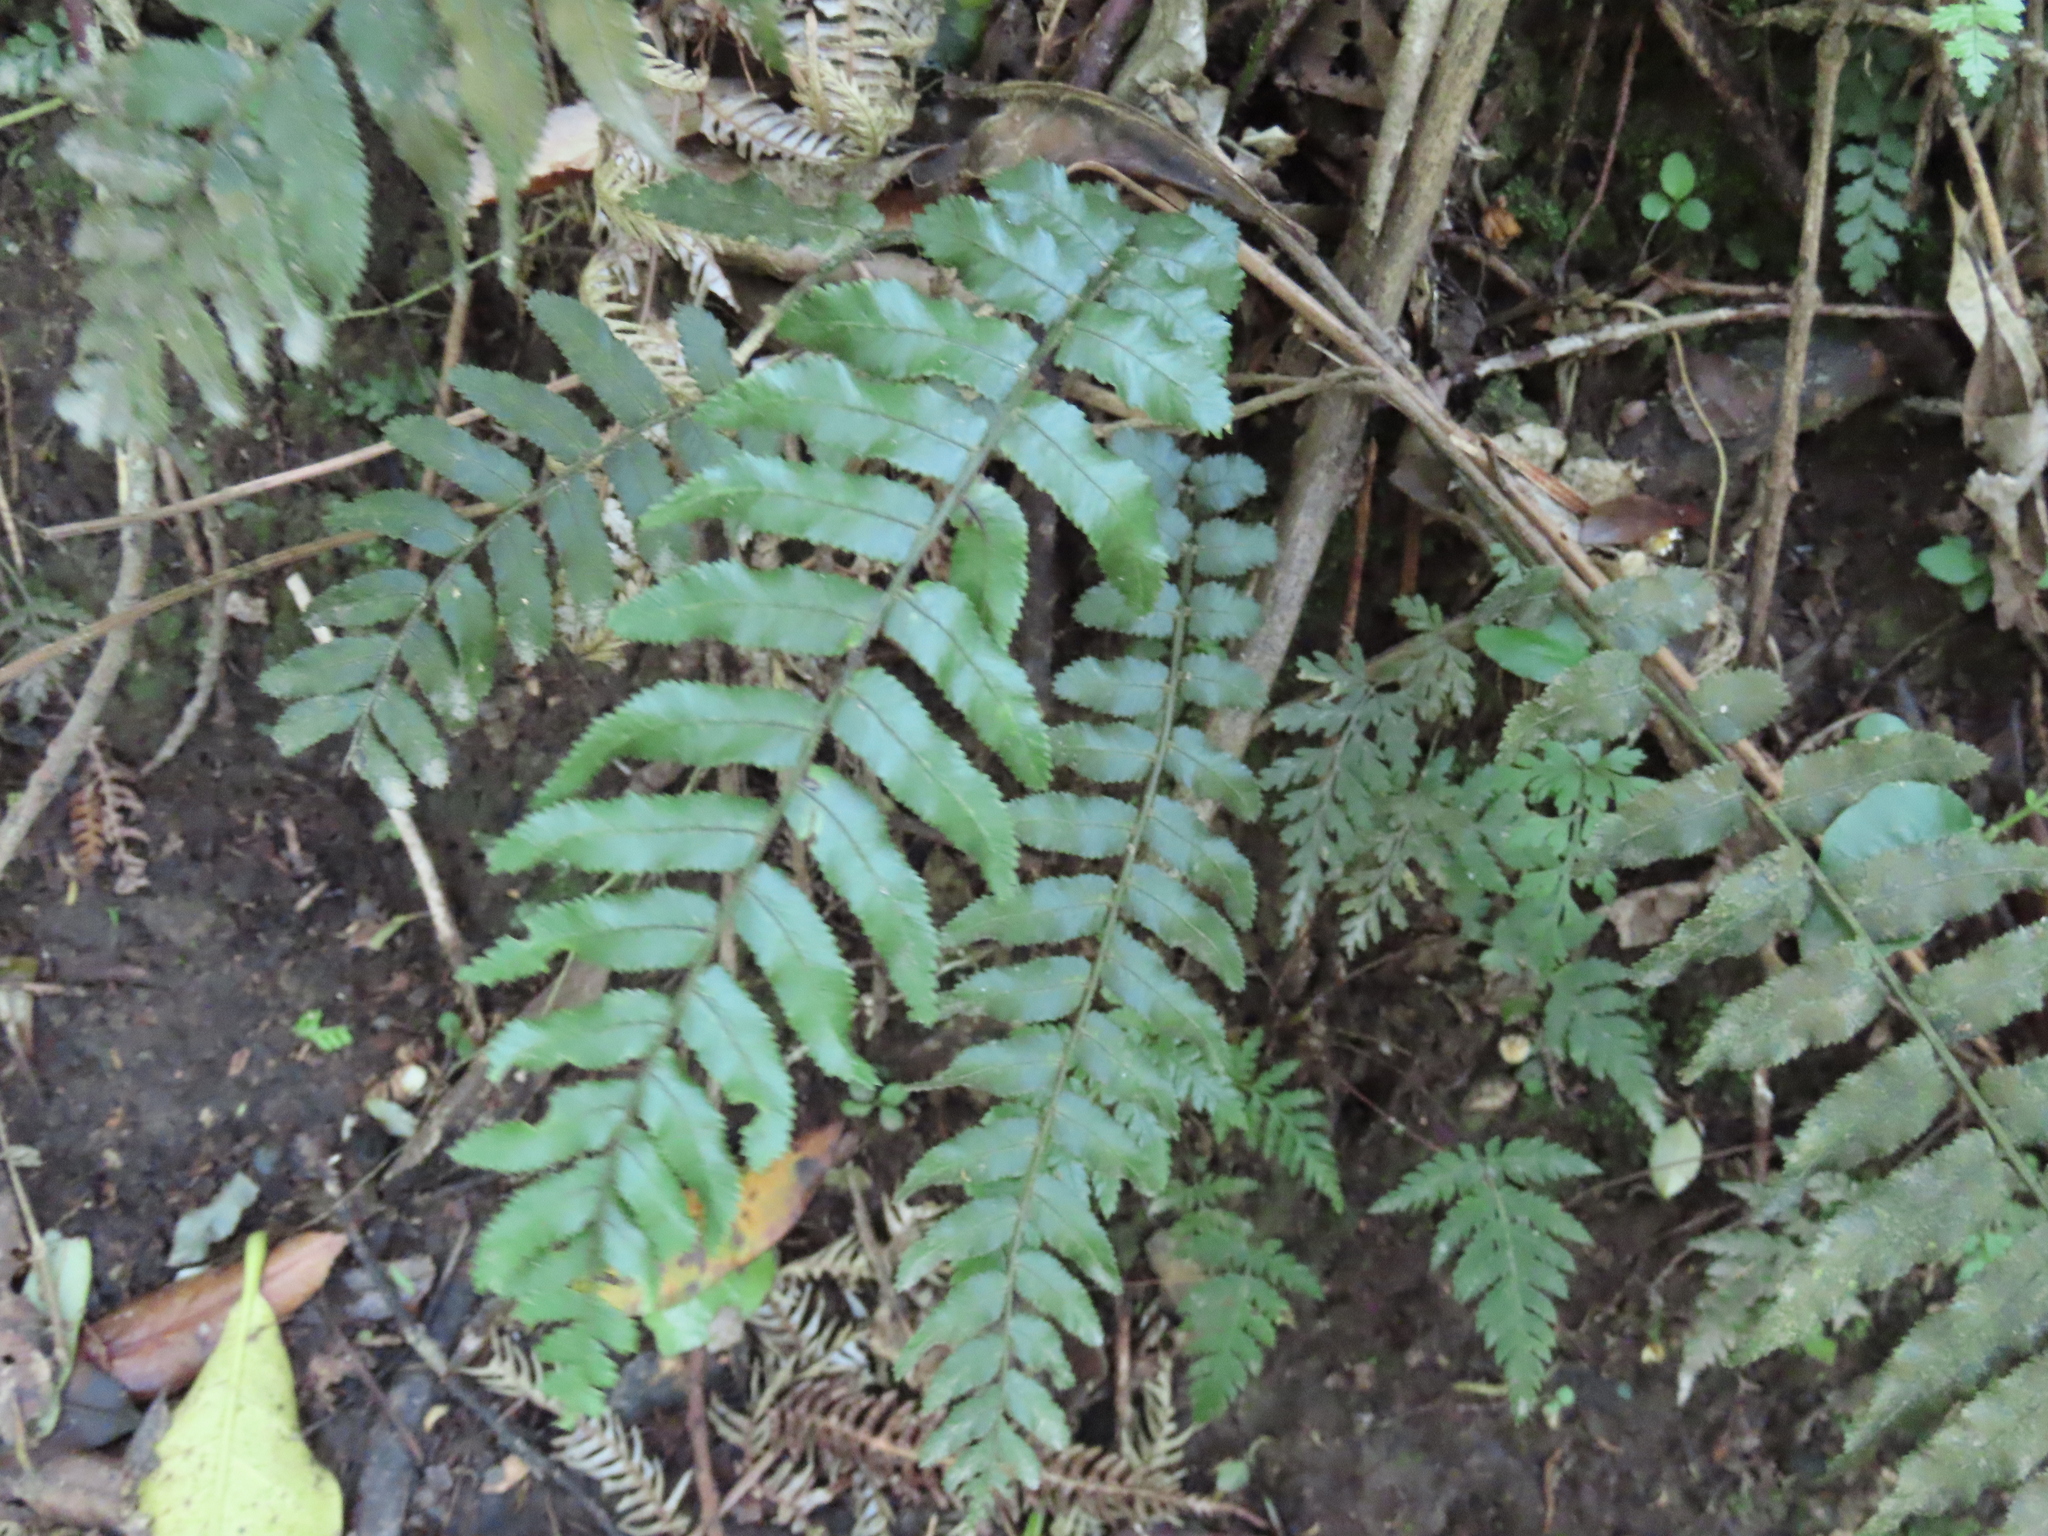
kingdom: Plantae
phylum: Tracheophyta
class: Polypodiopsida
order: Polypodiales
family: Blechnaceae
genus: Icarus
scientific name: Icarus filiformis
